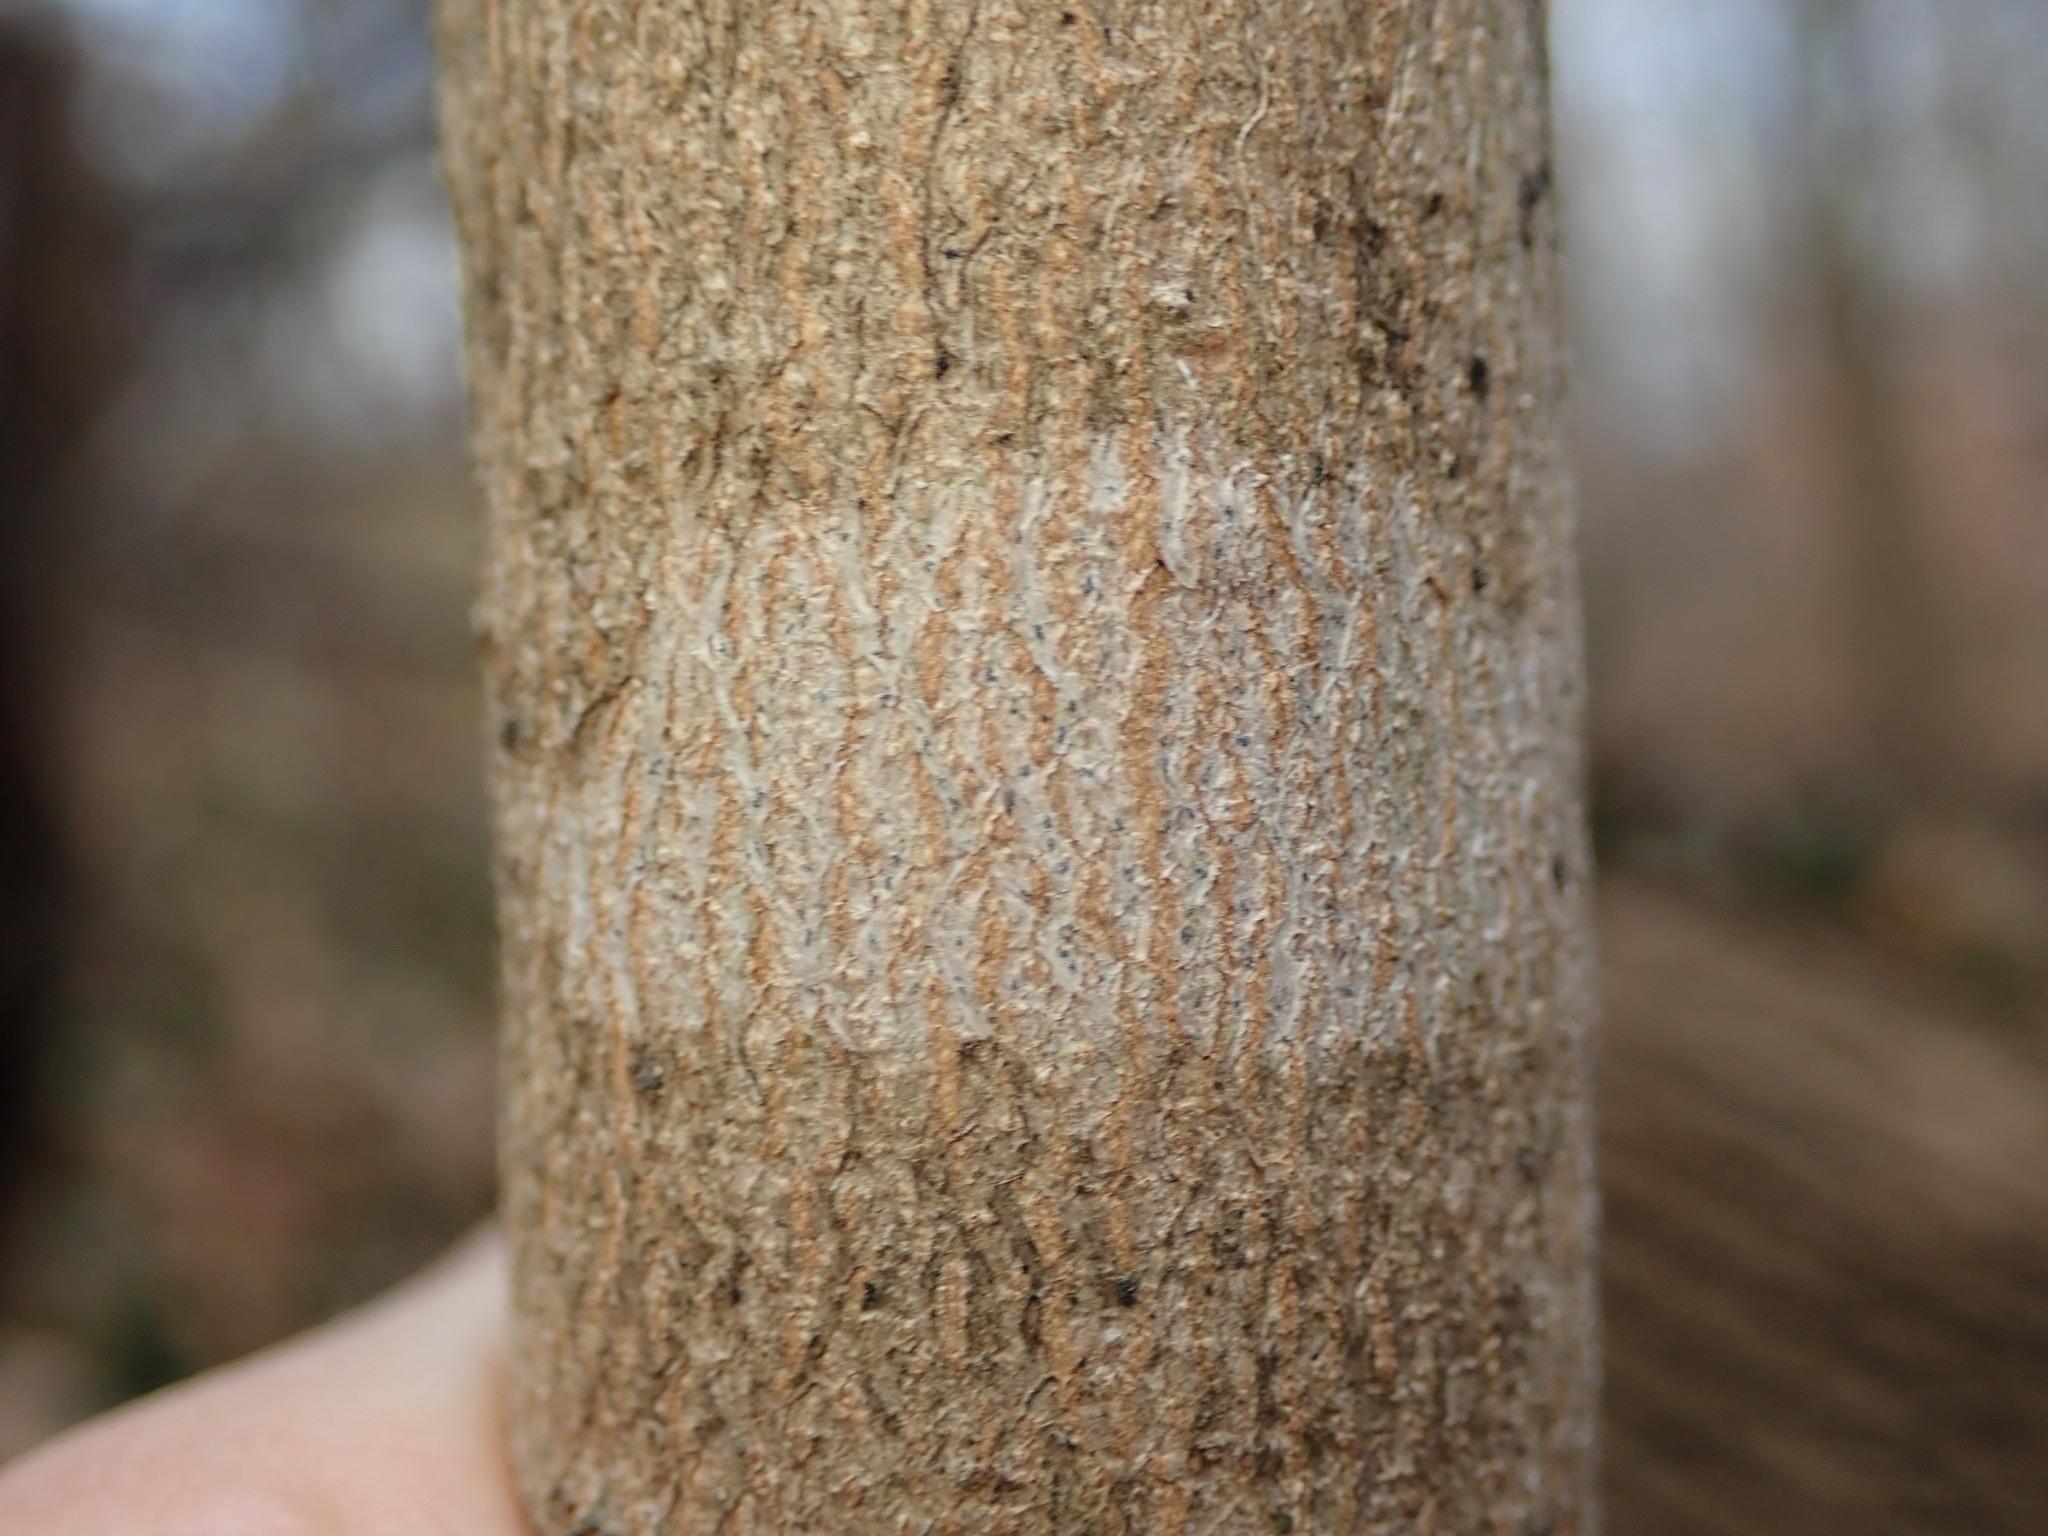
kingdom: Fungi
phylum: Ascomycota
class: Arthoniomycetes
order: Arthoniales
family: Arthoniaceae
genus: Arthonia
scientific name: Arthonia susa
